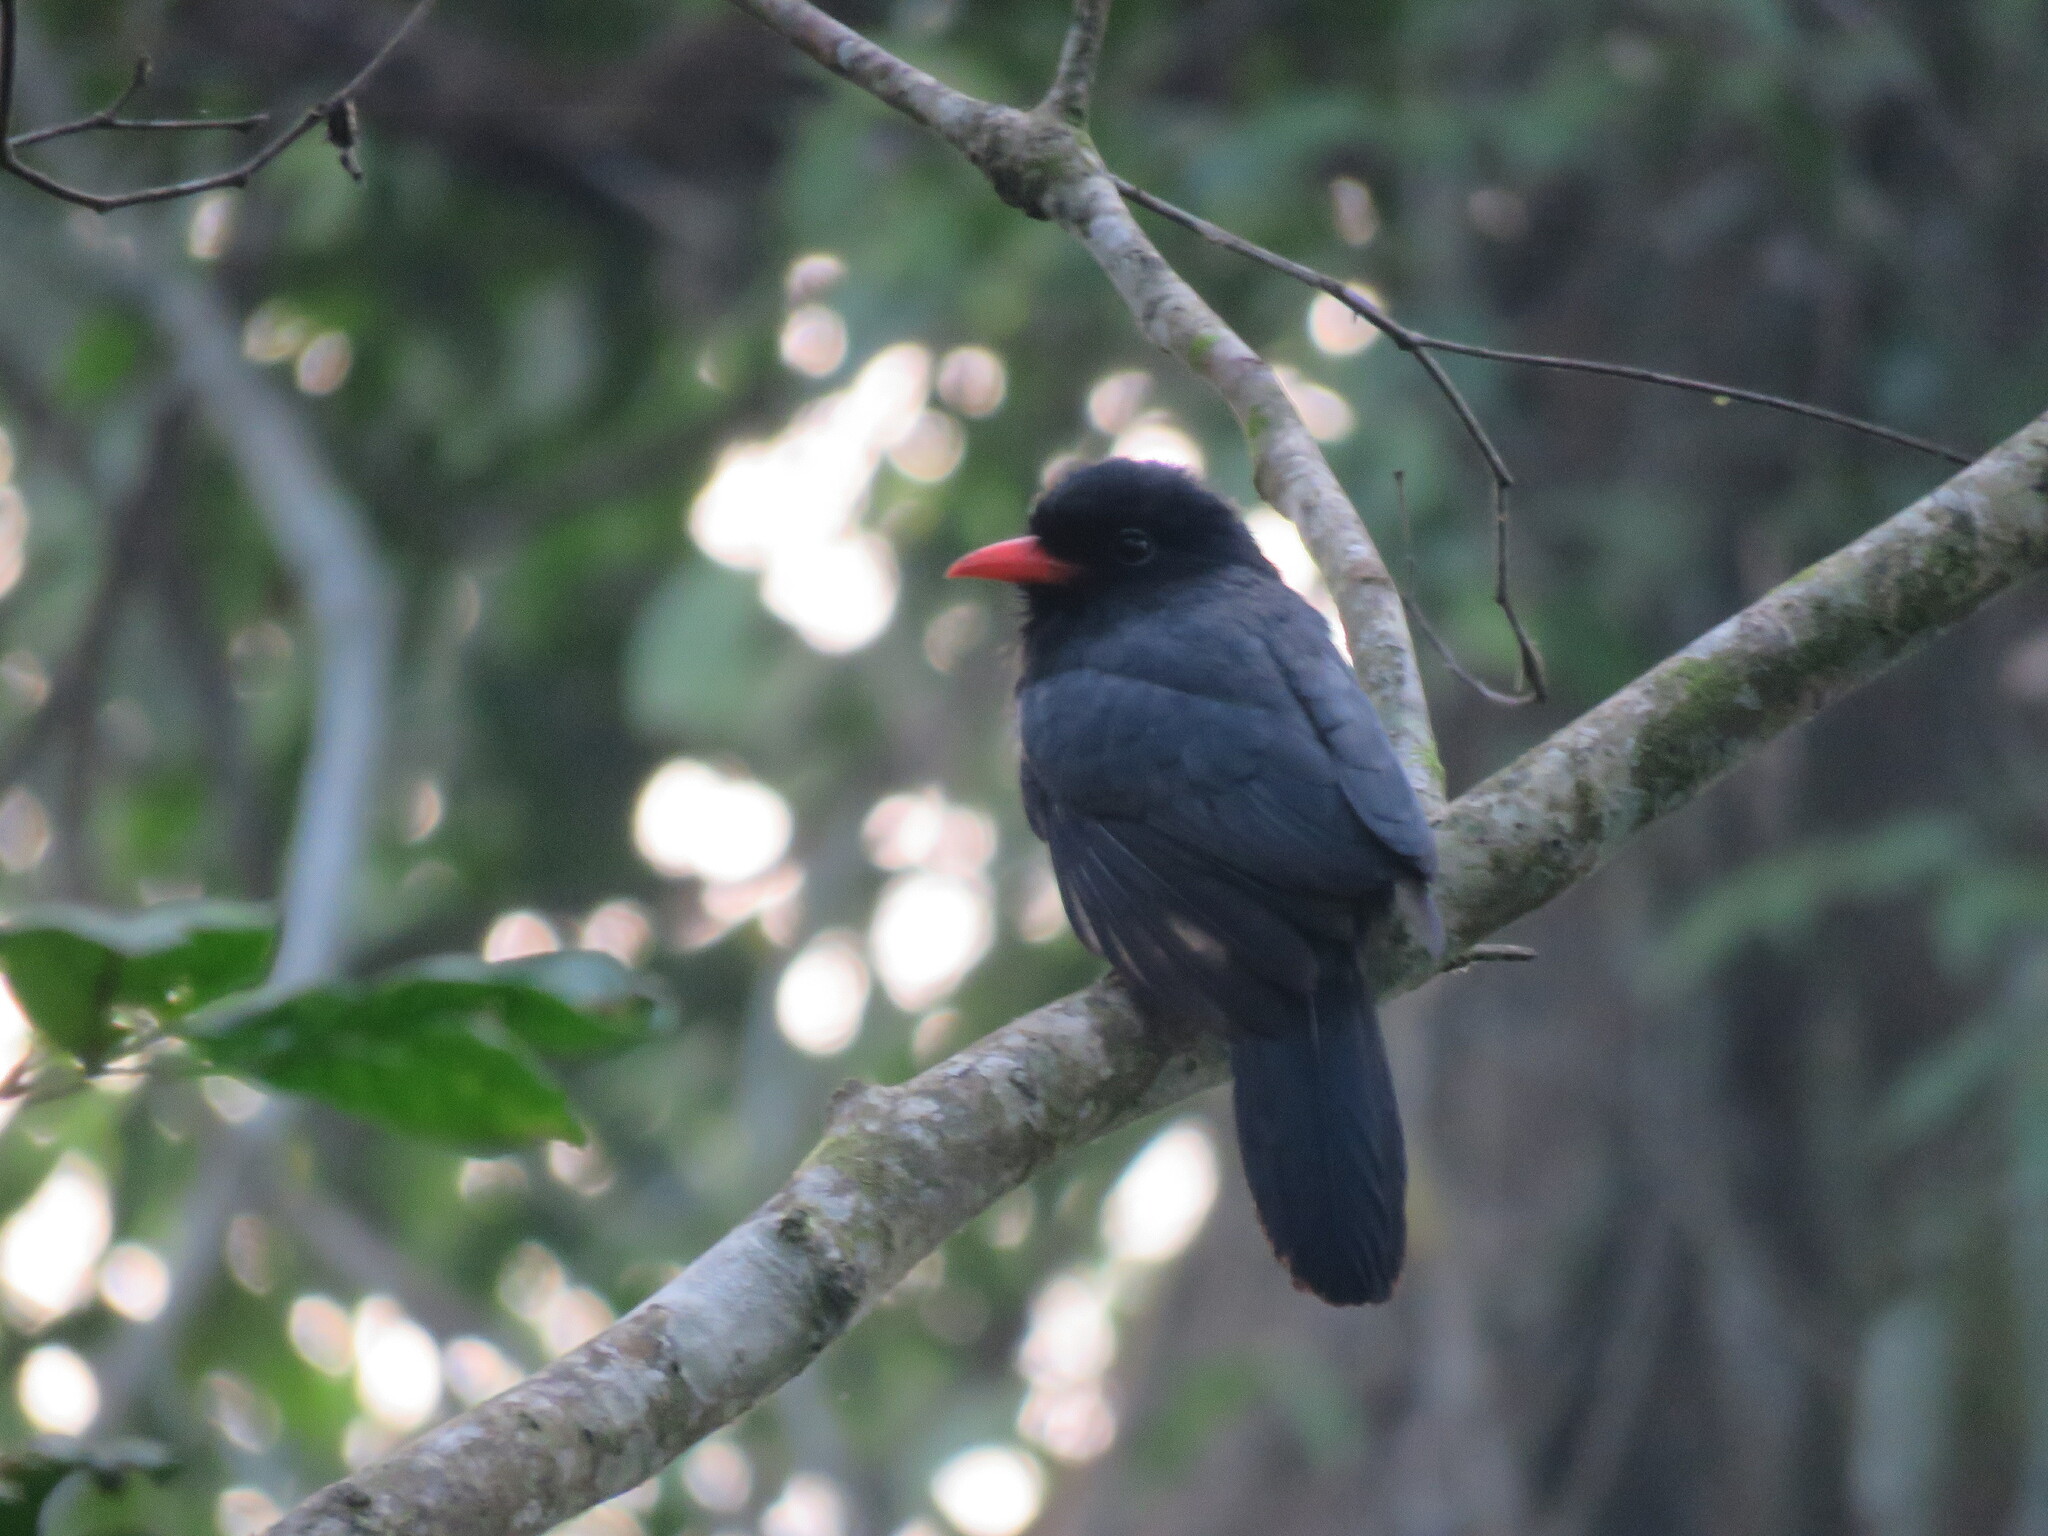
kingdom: Animalia
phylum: Chordata
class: Aves
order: Piciformes
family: Bucconidae
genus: Monasa
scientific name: Monasa nigrifrons
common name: Black-fronted nunbird
